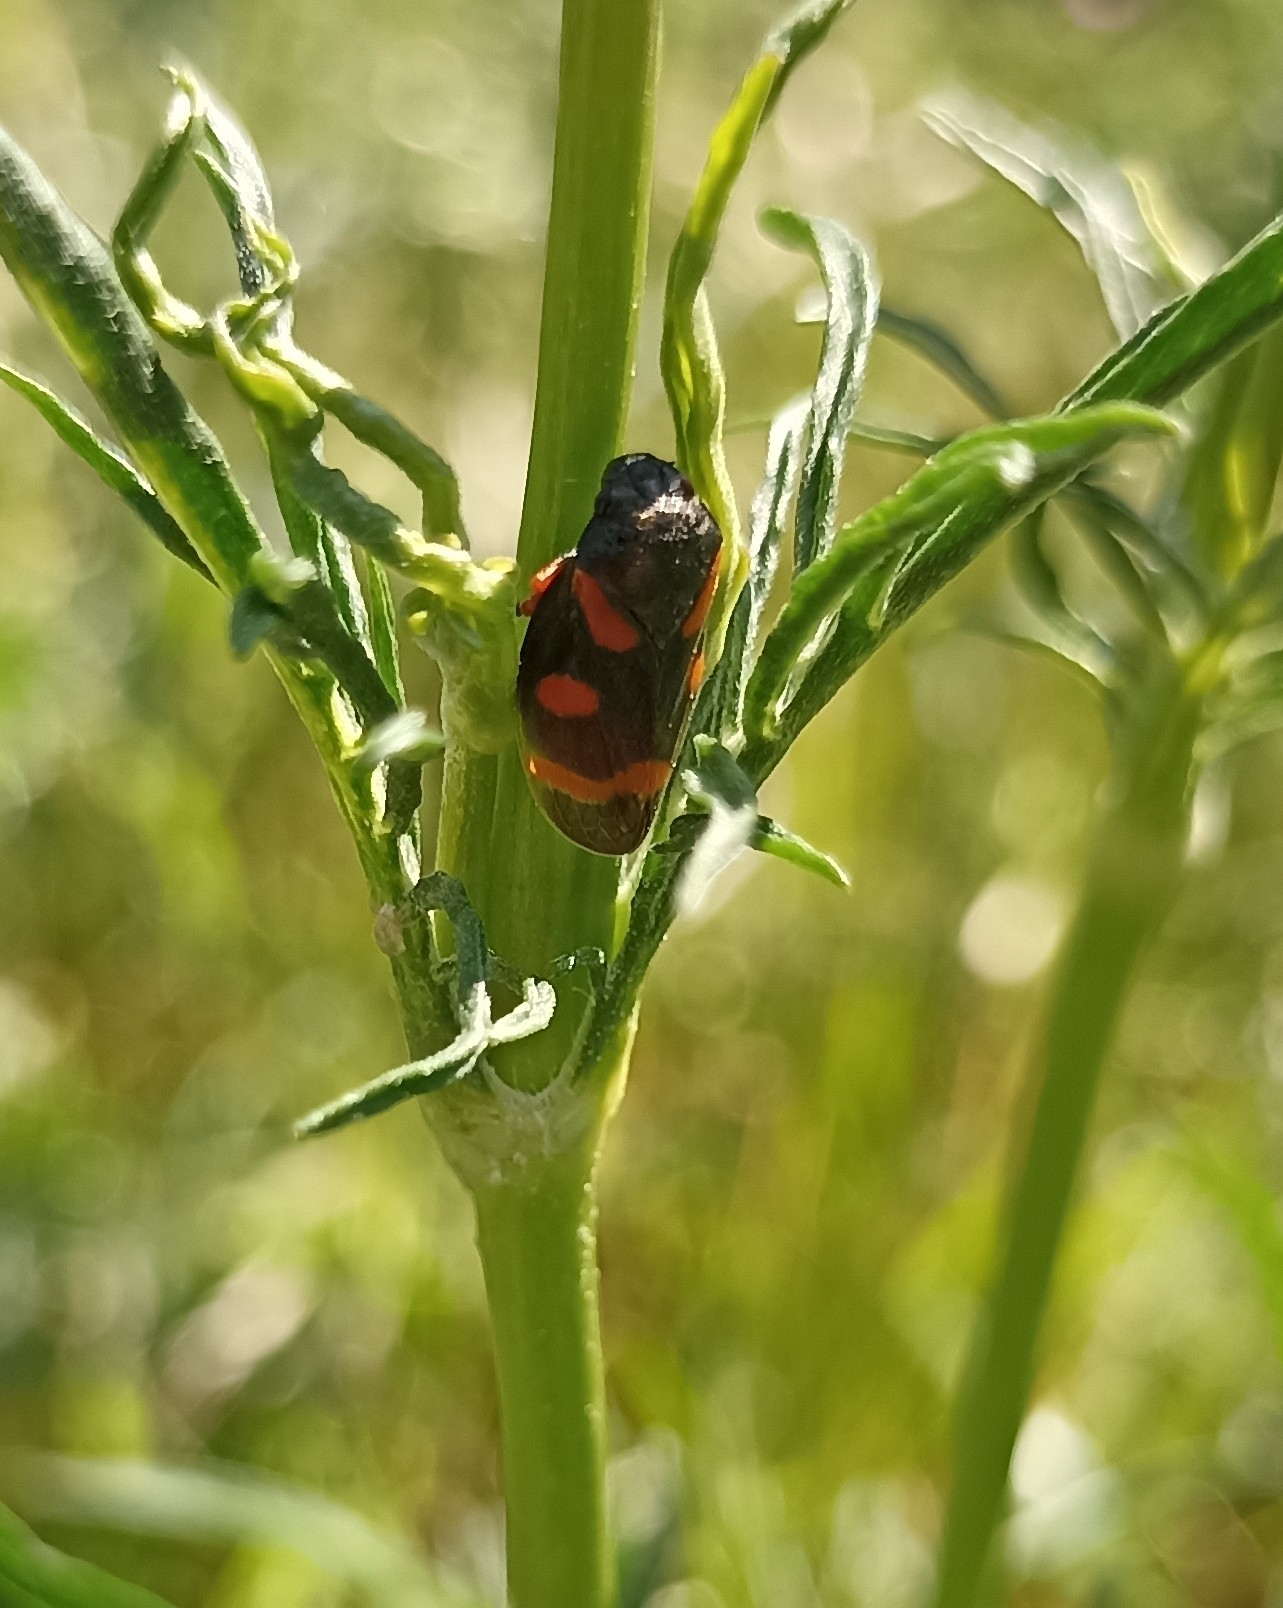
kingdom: Animalia
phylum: Arthropoda
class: Insecta
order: Hemiptera
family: Cercopidae
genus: Cercopis
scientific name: Cercopis intermedia
